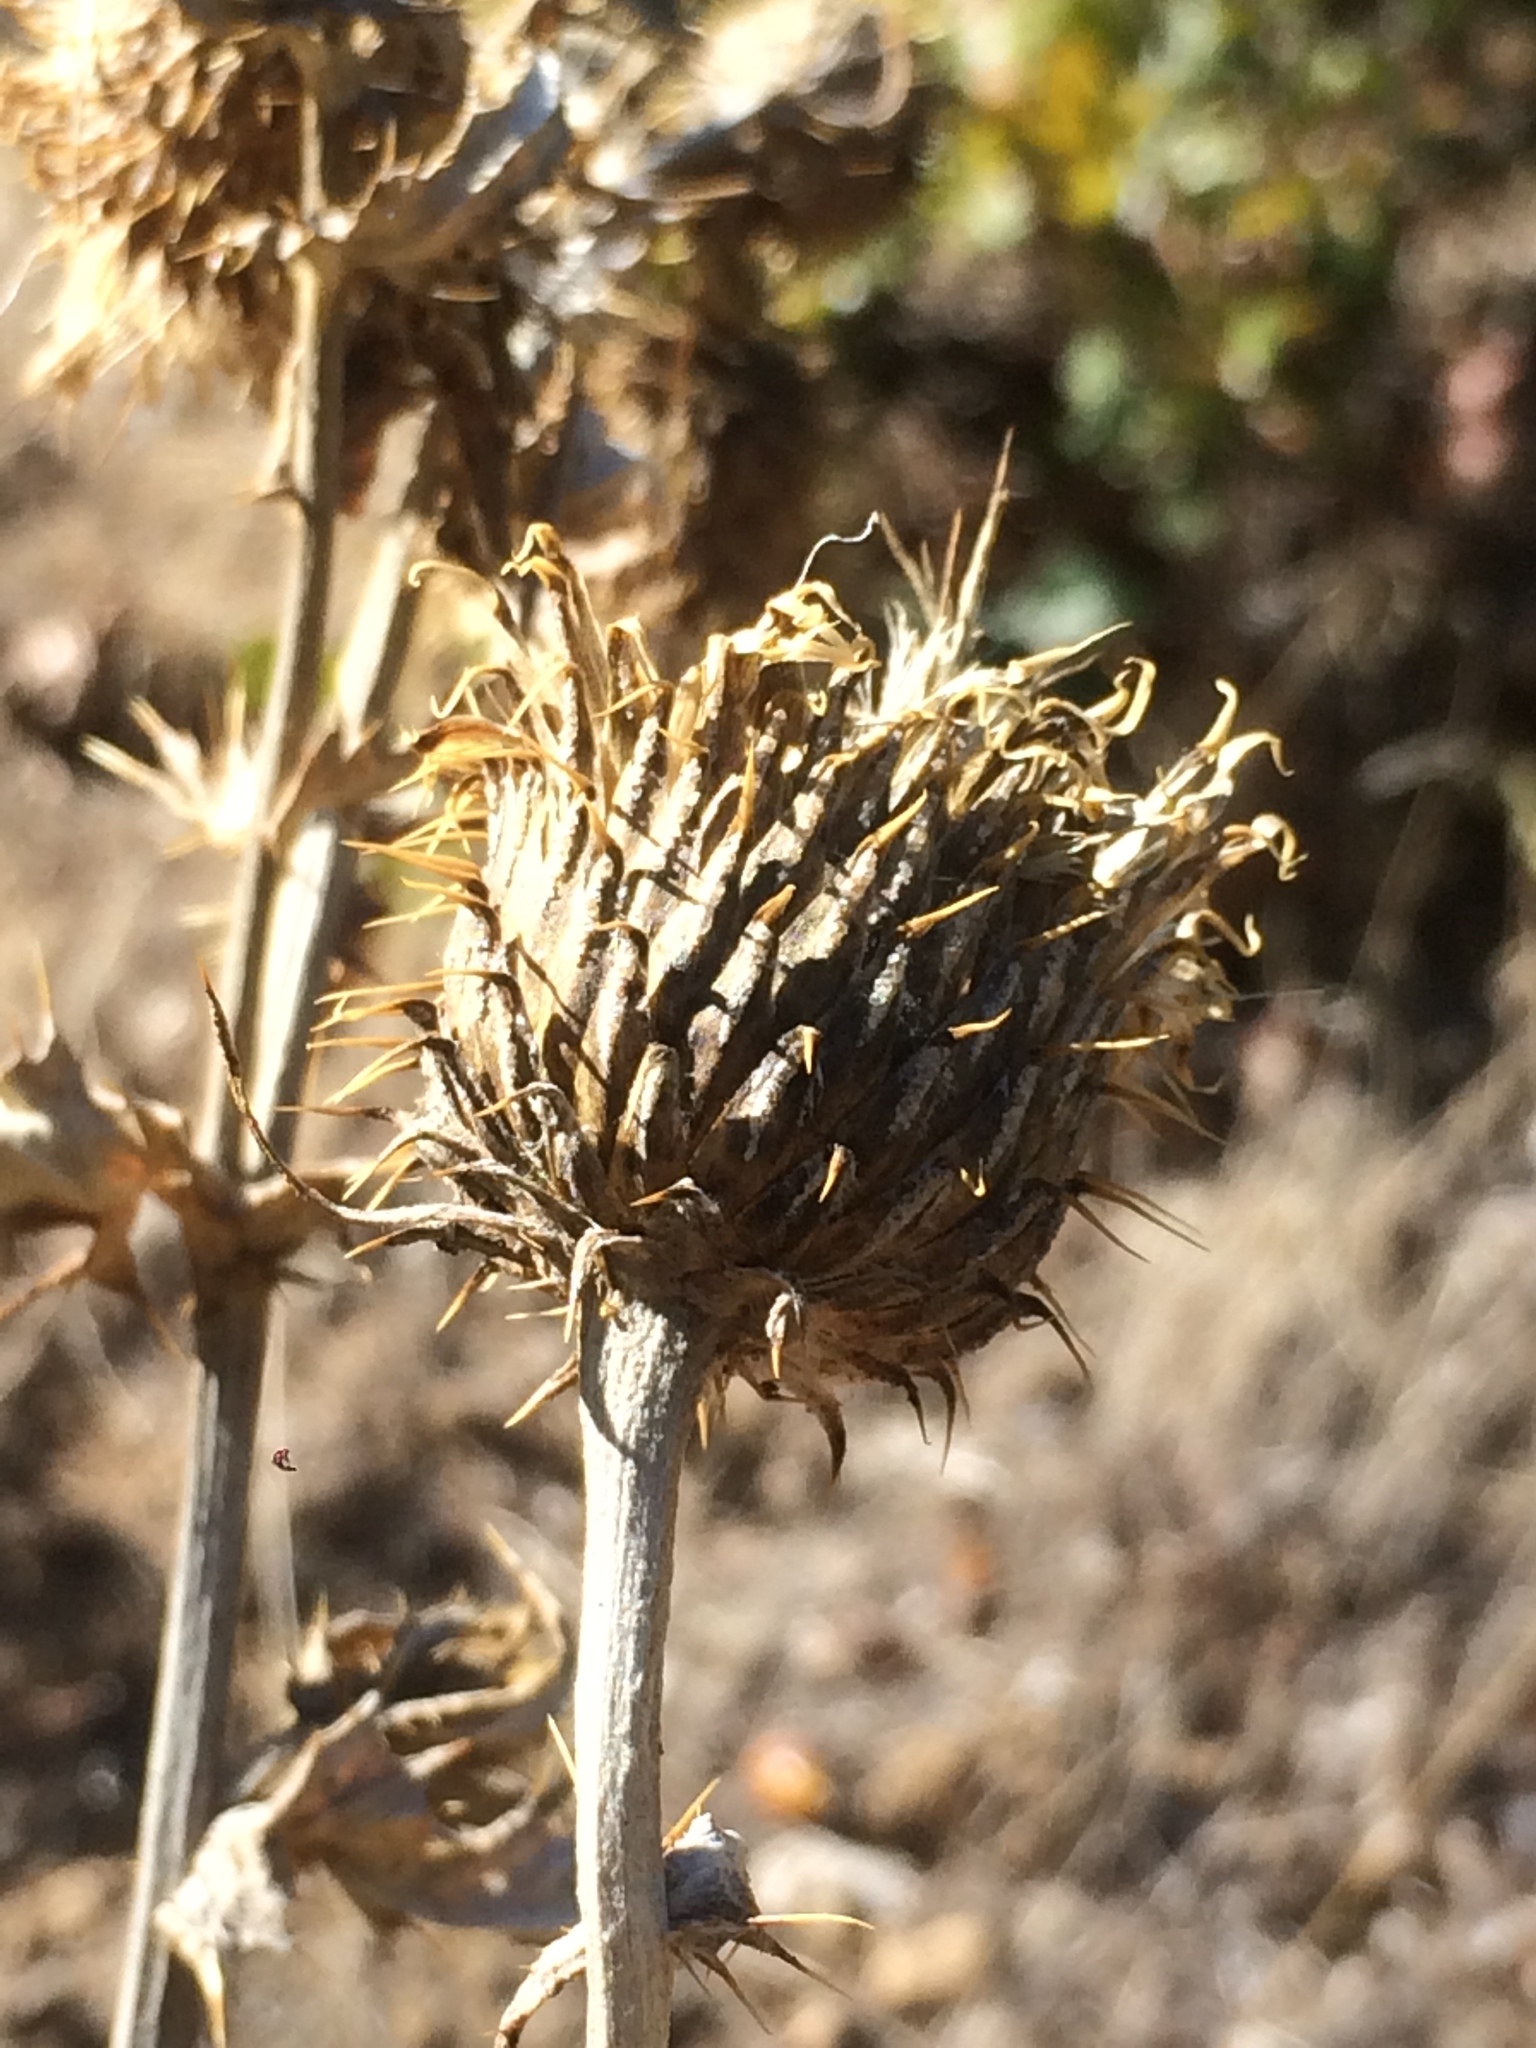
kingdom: Plantae
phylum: Tracheophyta
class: Magnoliopsida
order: Asterales
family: Asteraceae
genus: Cirsium
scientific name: Cirsium undulatum
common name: Pasture thistle
